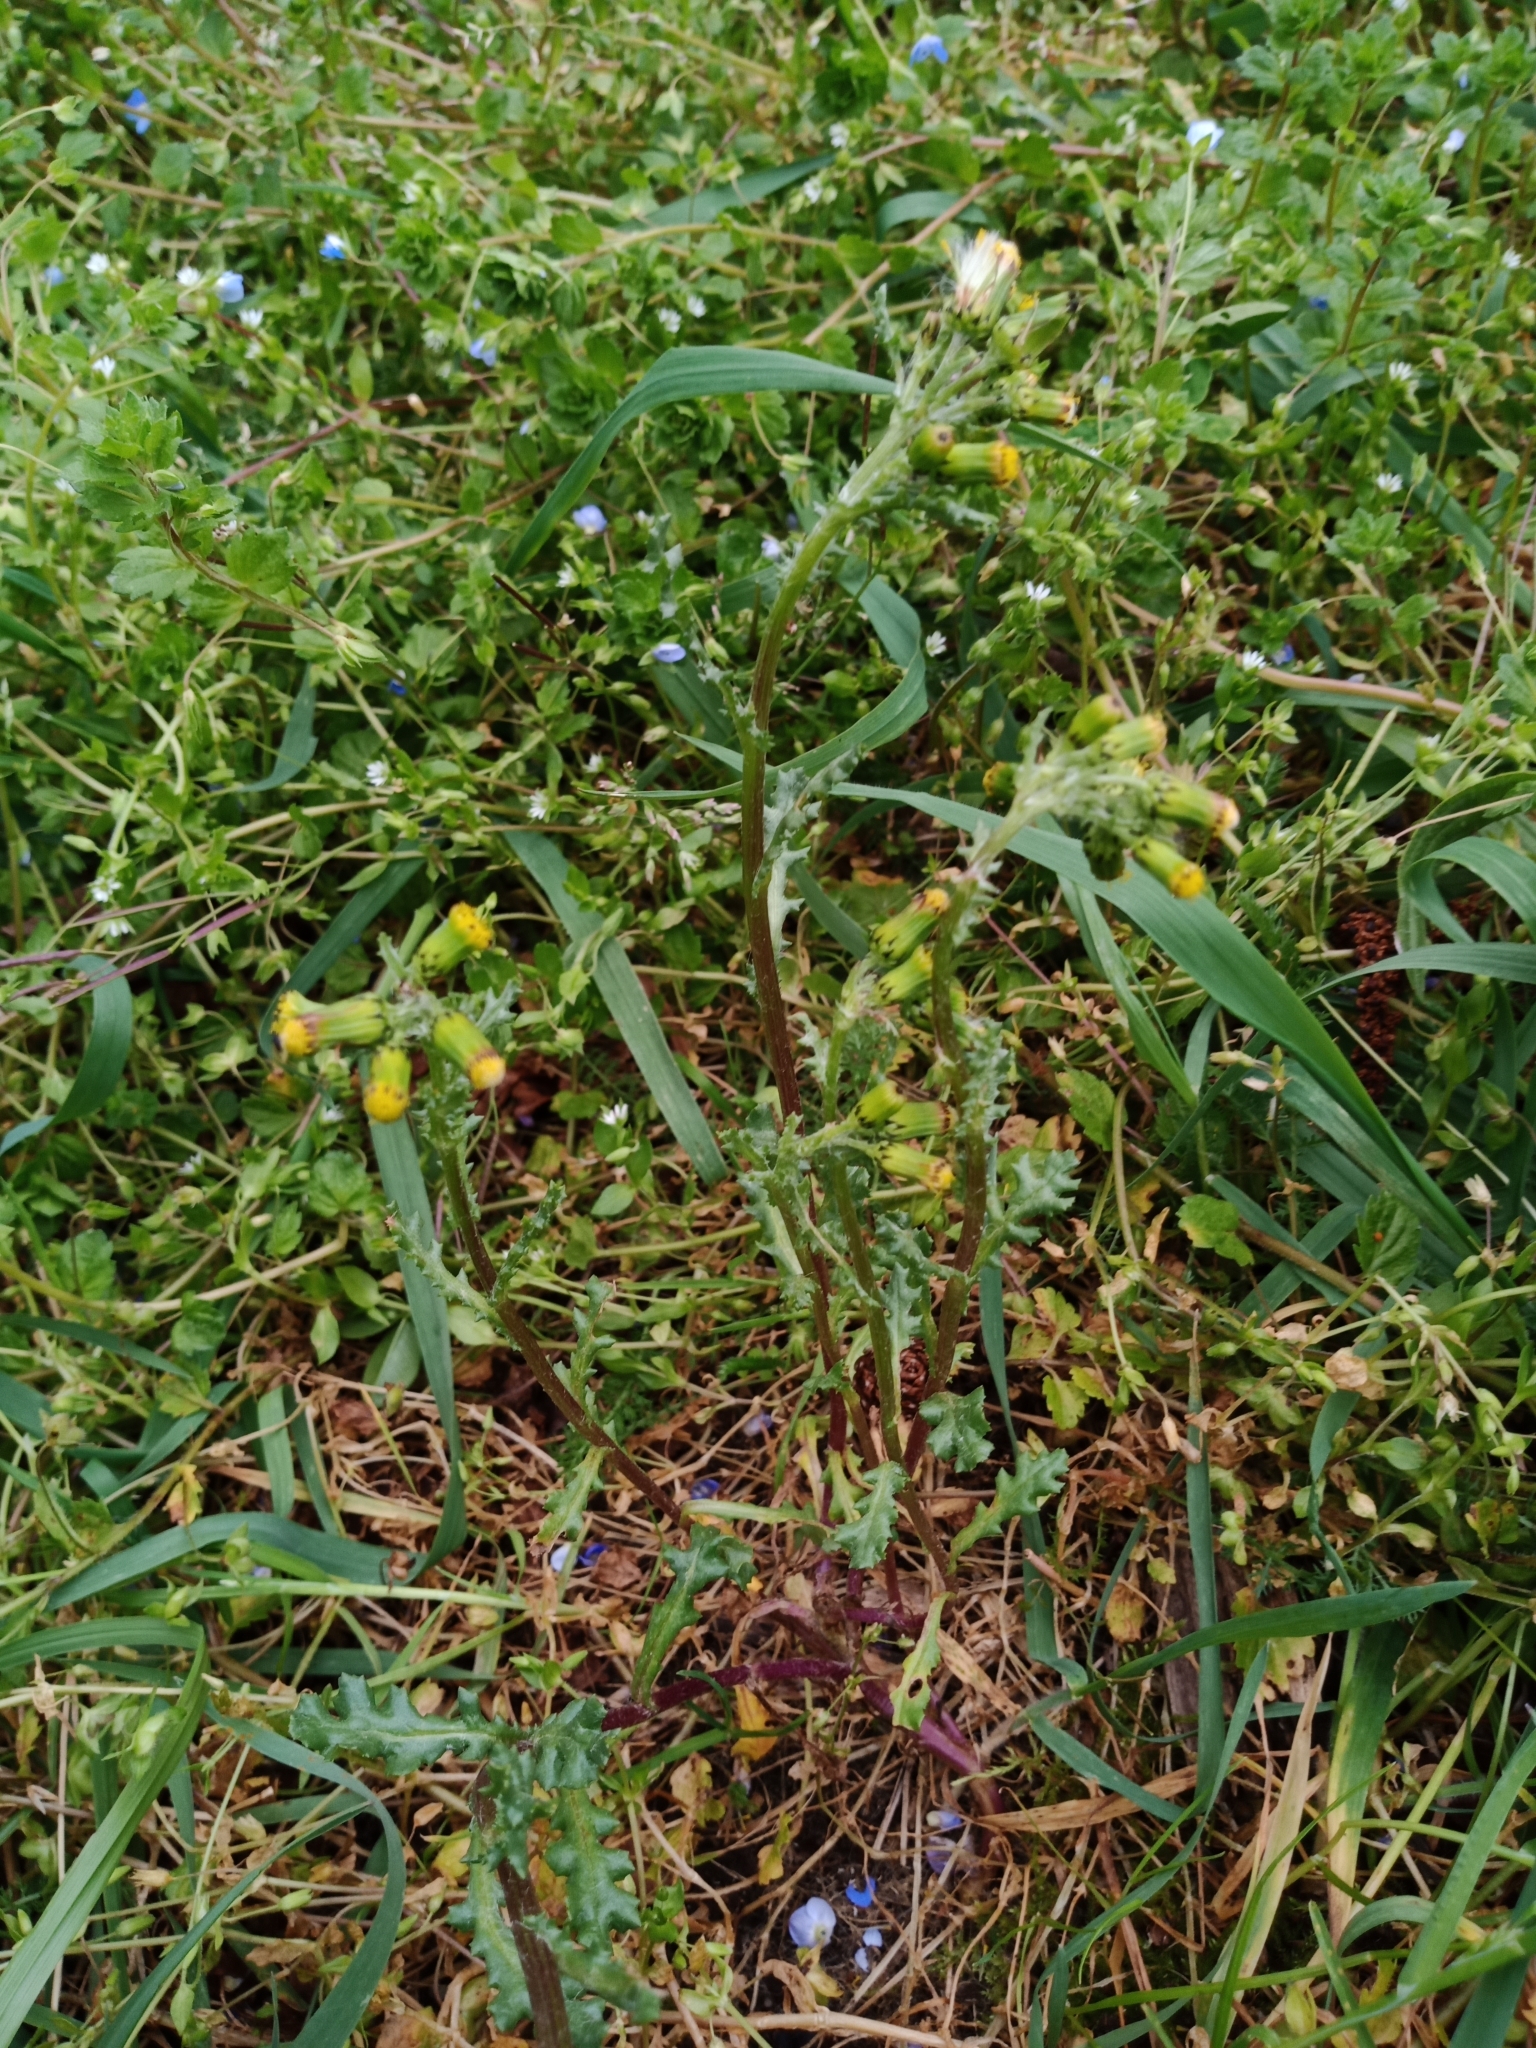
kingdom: Plantae
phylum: Tracheophyta
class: Magnoliopsida
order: Asterales
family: Asteraceae
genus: Senecio
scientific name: Senecio vulgaris
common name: Old-man-in-the-spring
